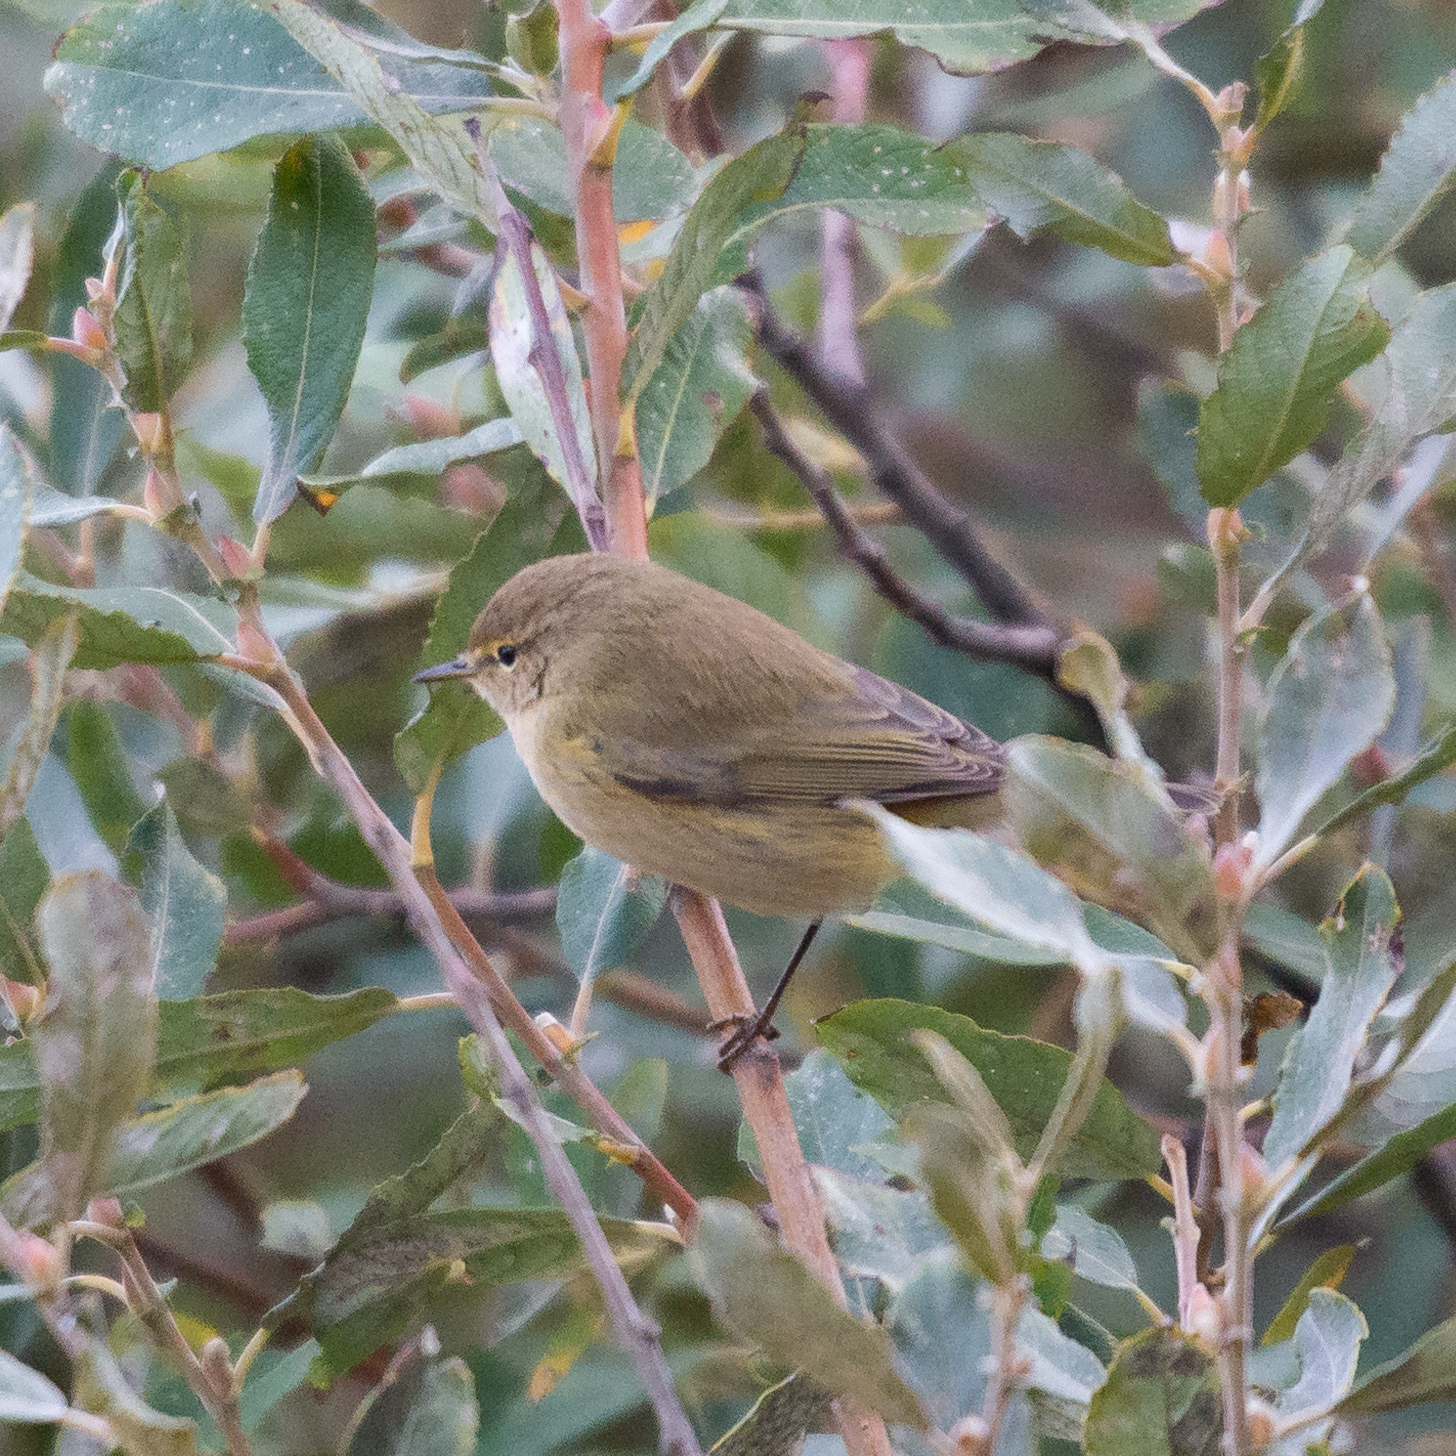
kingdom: Animalia
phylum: Chordata
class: Aves
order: Passeriformes
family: Phylloscopidae
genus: Phylloscopus
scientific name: Phylloscopus collybita
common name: Common chiffchaff
